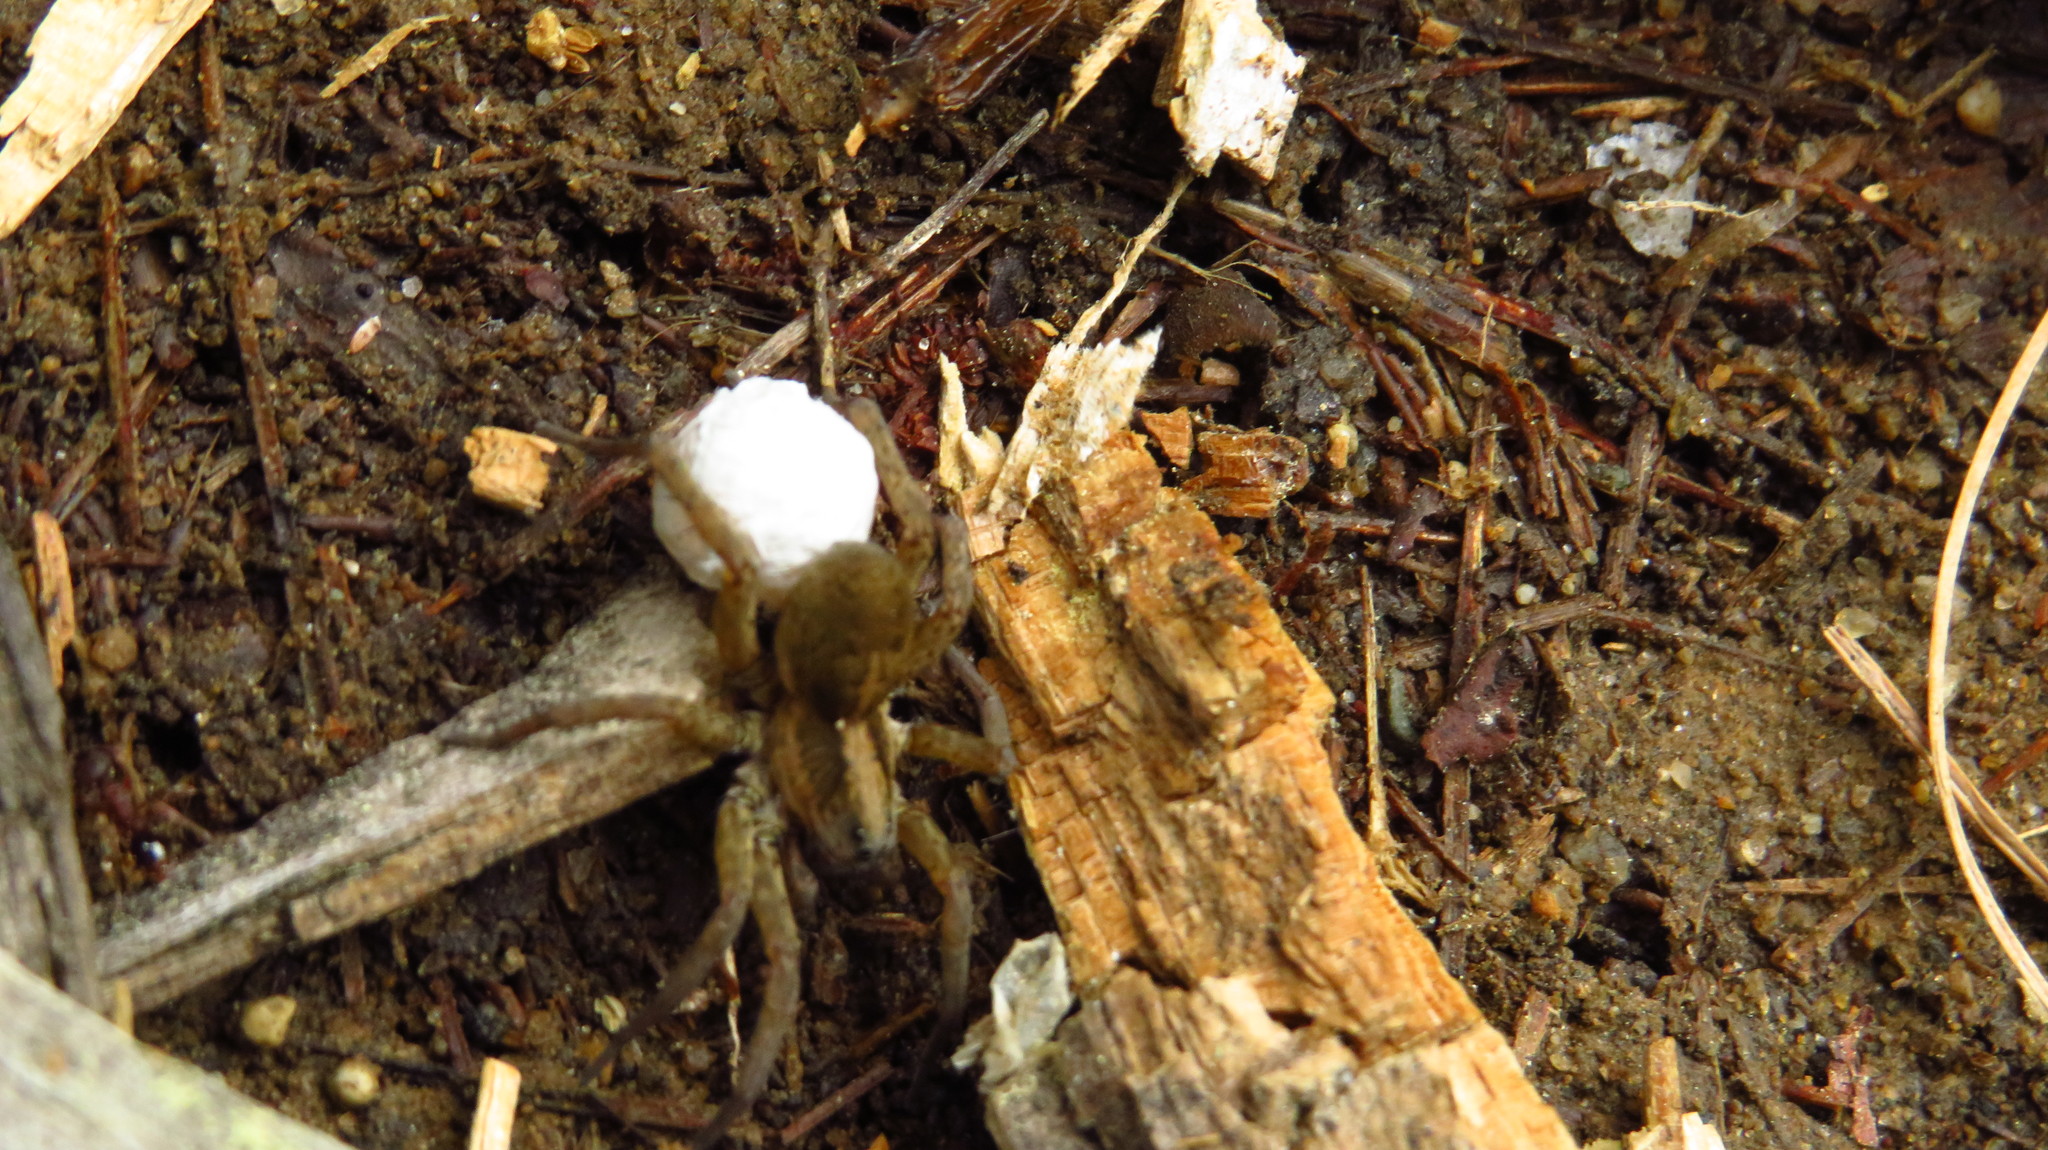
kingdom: Animalia
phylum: Arthropoda
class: Arachnida
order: Araneae
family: Lycosidae
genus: Trochosa
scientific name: Trochosa
